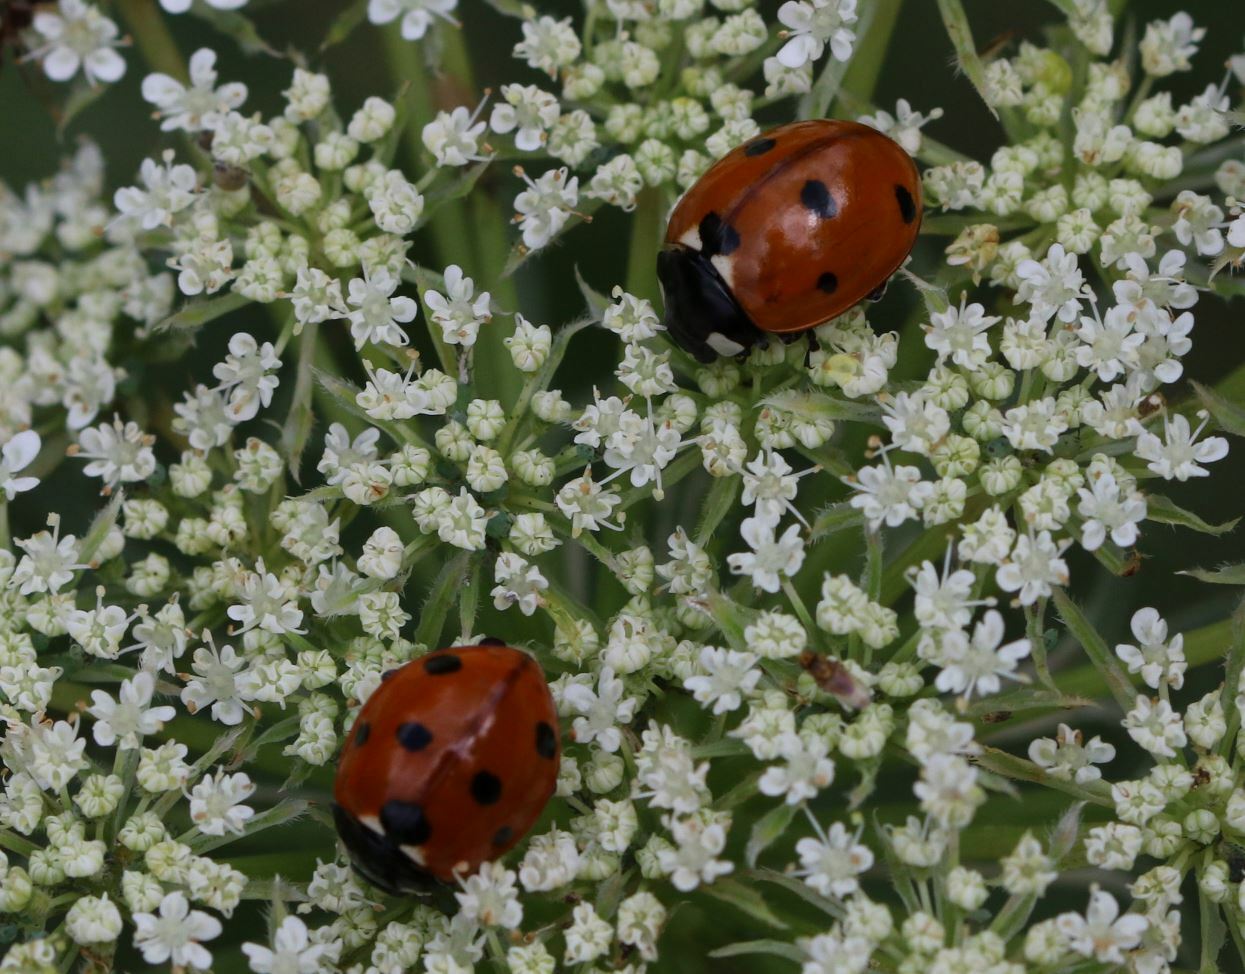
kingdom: Animalia
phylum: Arthropoda
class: Insecta
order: Coleoptera
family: Coccinellidae
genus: Coccinella
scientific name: Coccinella septempunctata
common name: Sevenspotted lady beetle
